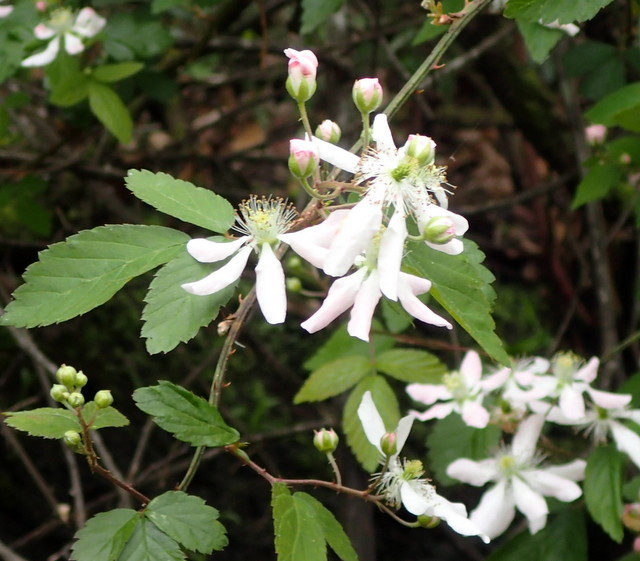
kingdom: Plantae
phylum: Tracheophyta
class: Magnoliopsida
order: Rosales
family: Rosaceae
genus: Rubus
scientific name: Rubus pensilvanicus
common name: Pennsylvania blackberry
